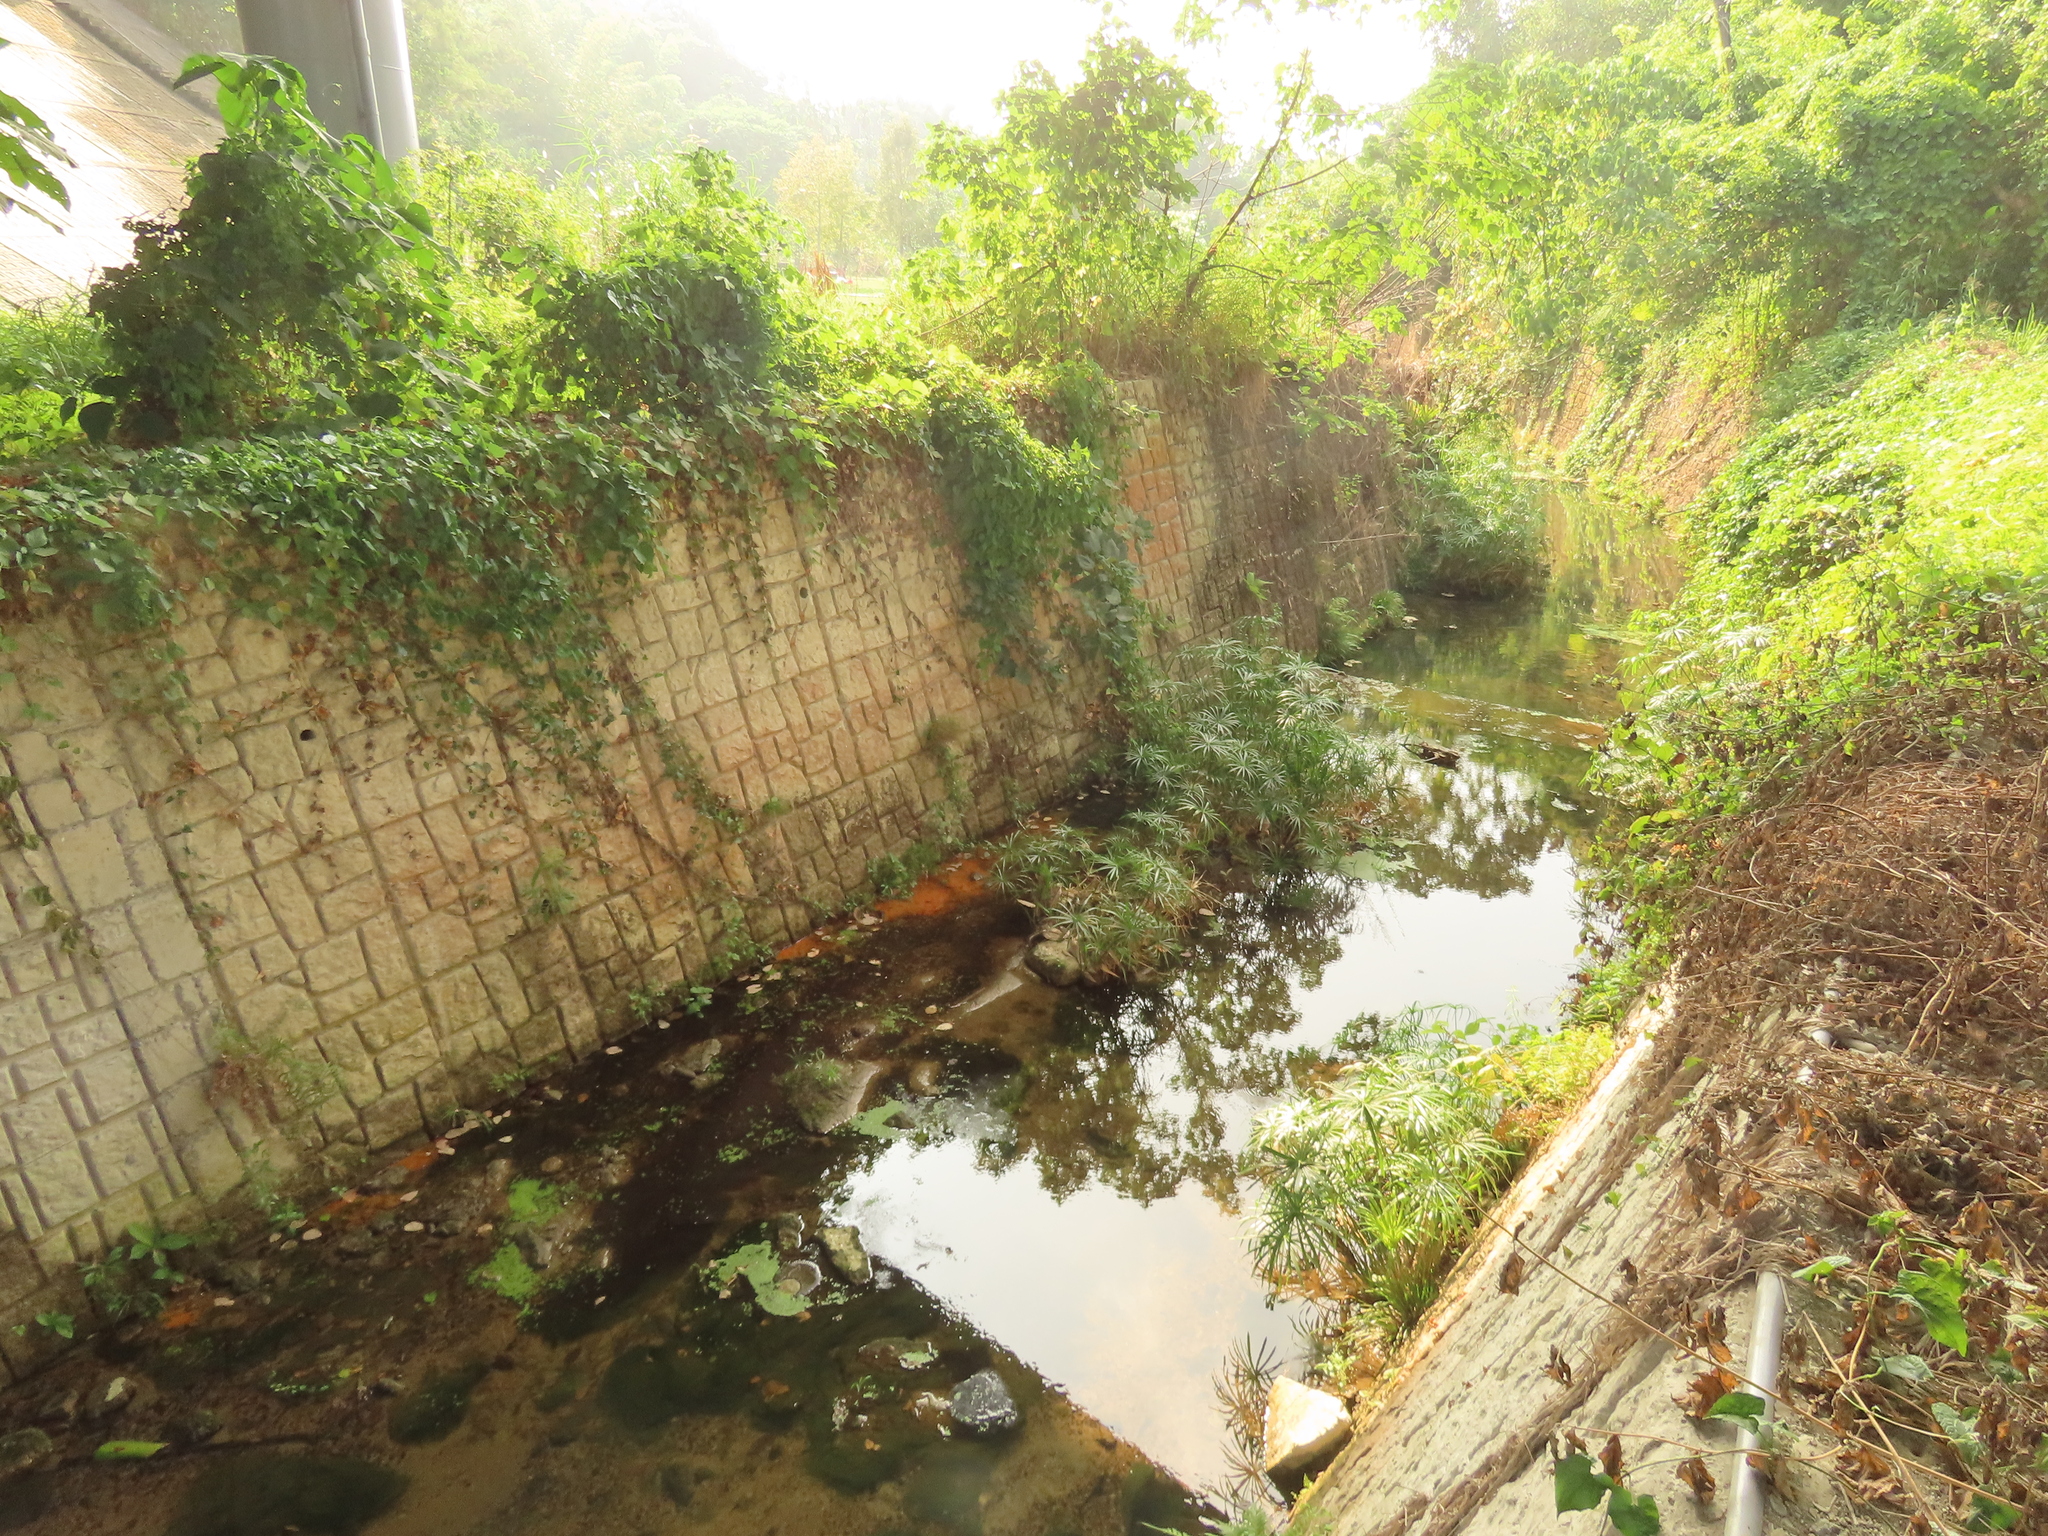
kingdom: Plantae
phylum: Tracheophyta
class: Liliopsida
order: Acorales
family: Acoraceae
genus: Acorus
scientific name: Acorus gramineus
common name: Slender sweet-flag
